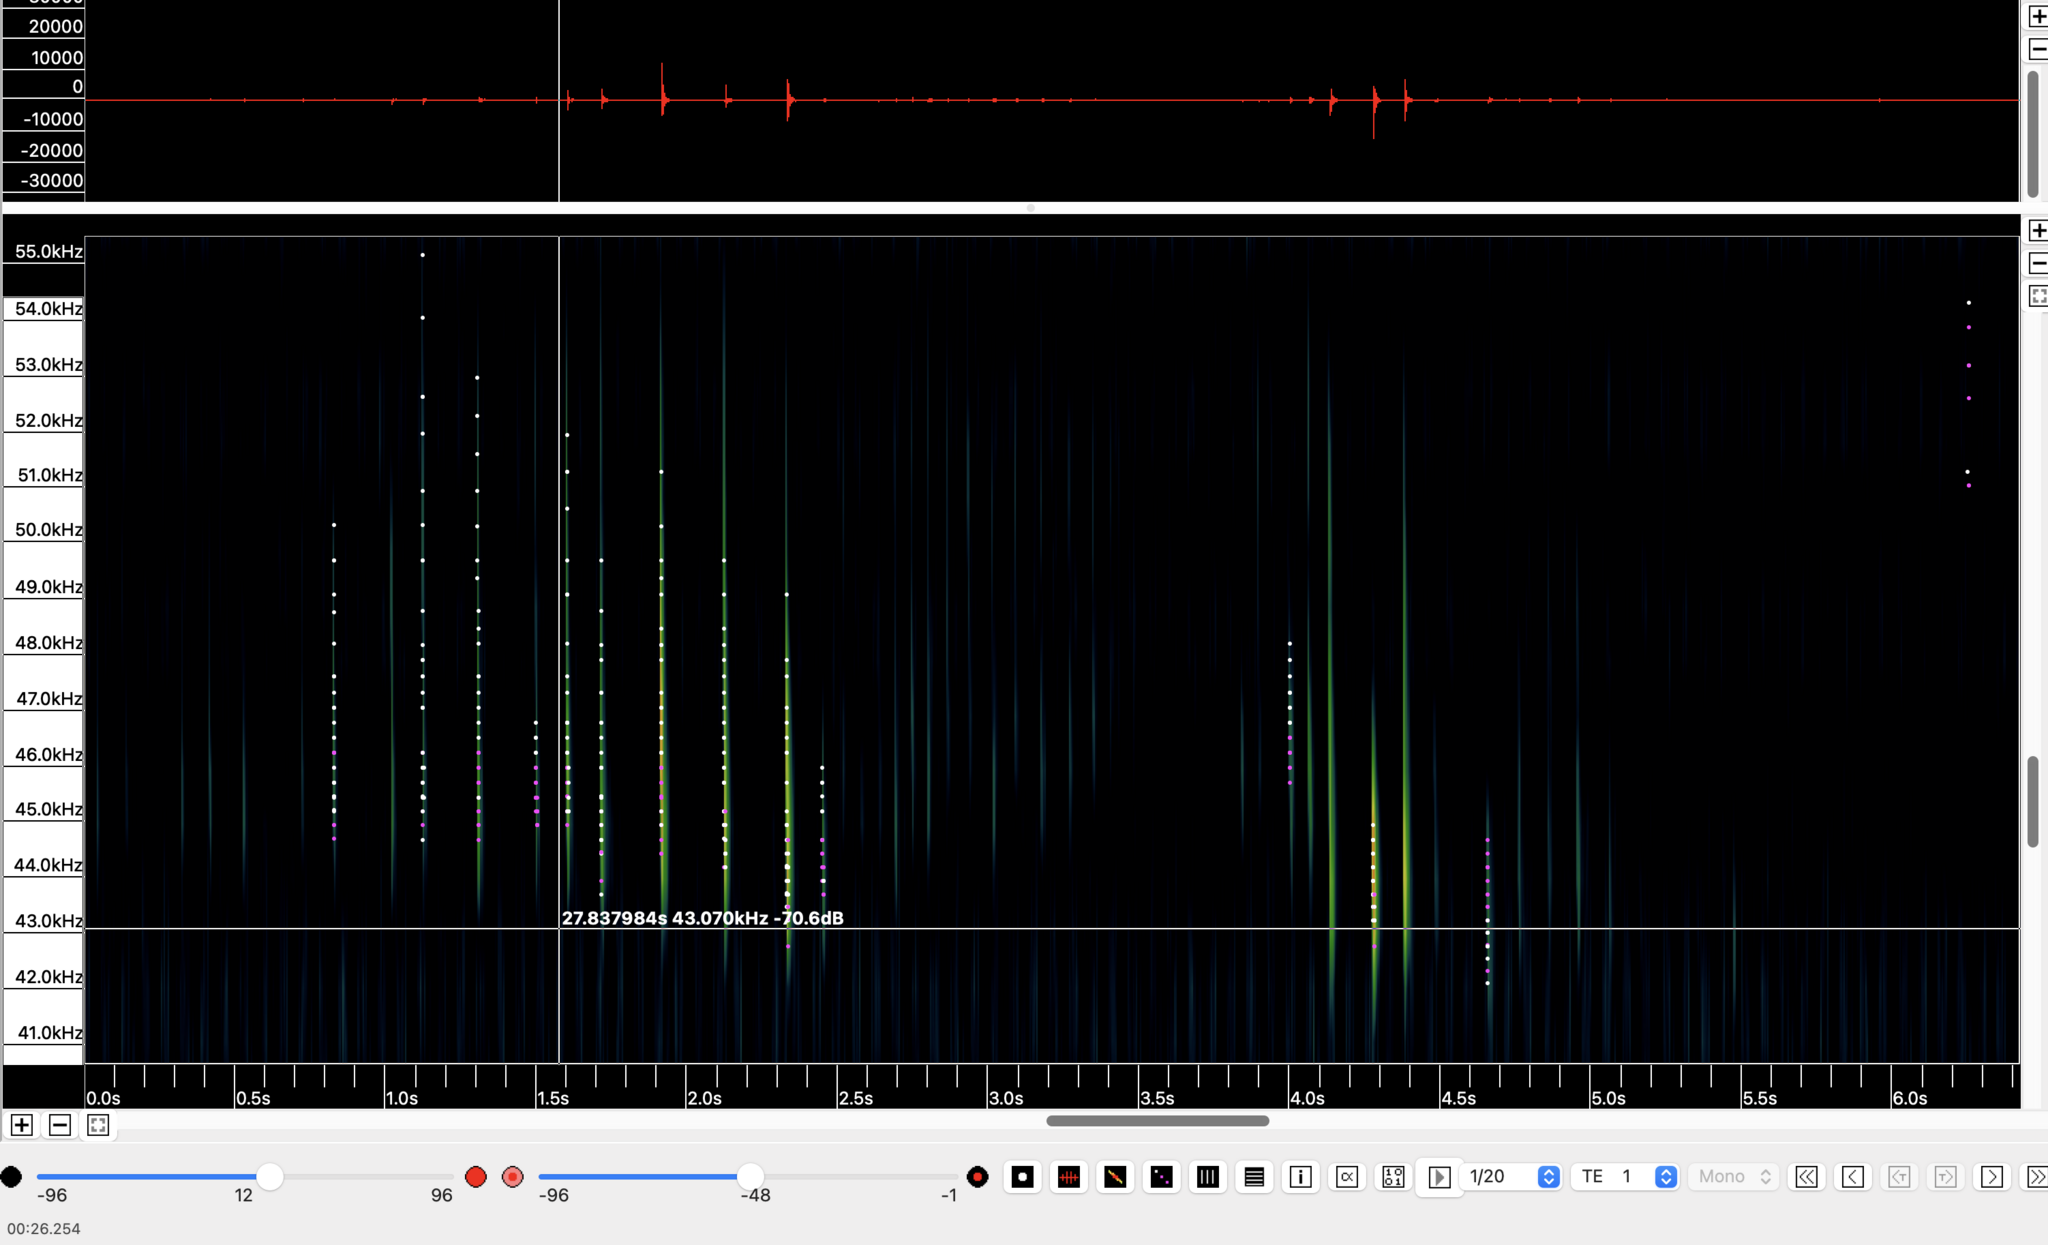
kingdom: Animalia
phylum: Chordata
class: Mammalia
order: Chiroptera
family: Vespertilionidae
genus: Pipistrellus
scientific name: Pipistrellus pipistrellus
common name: Common pipistrelle
